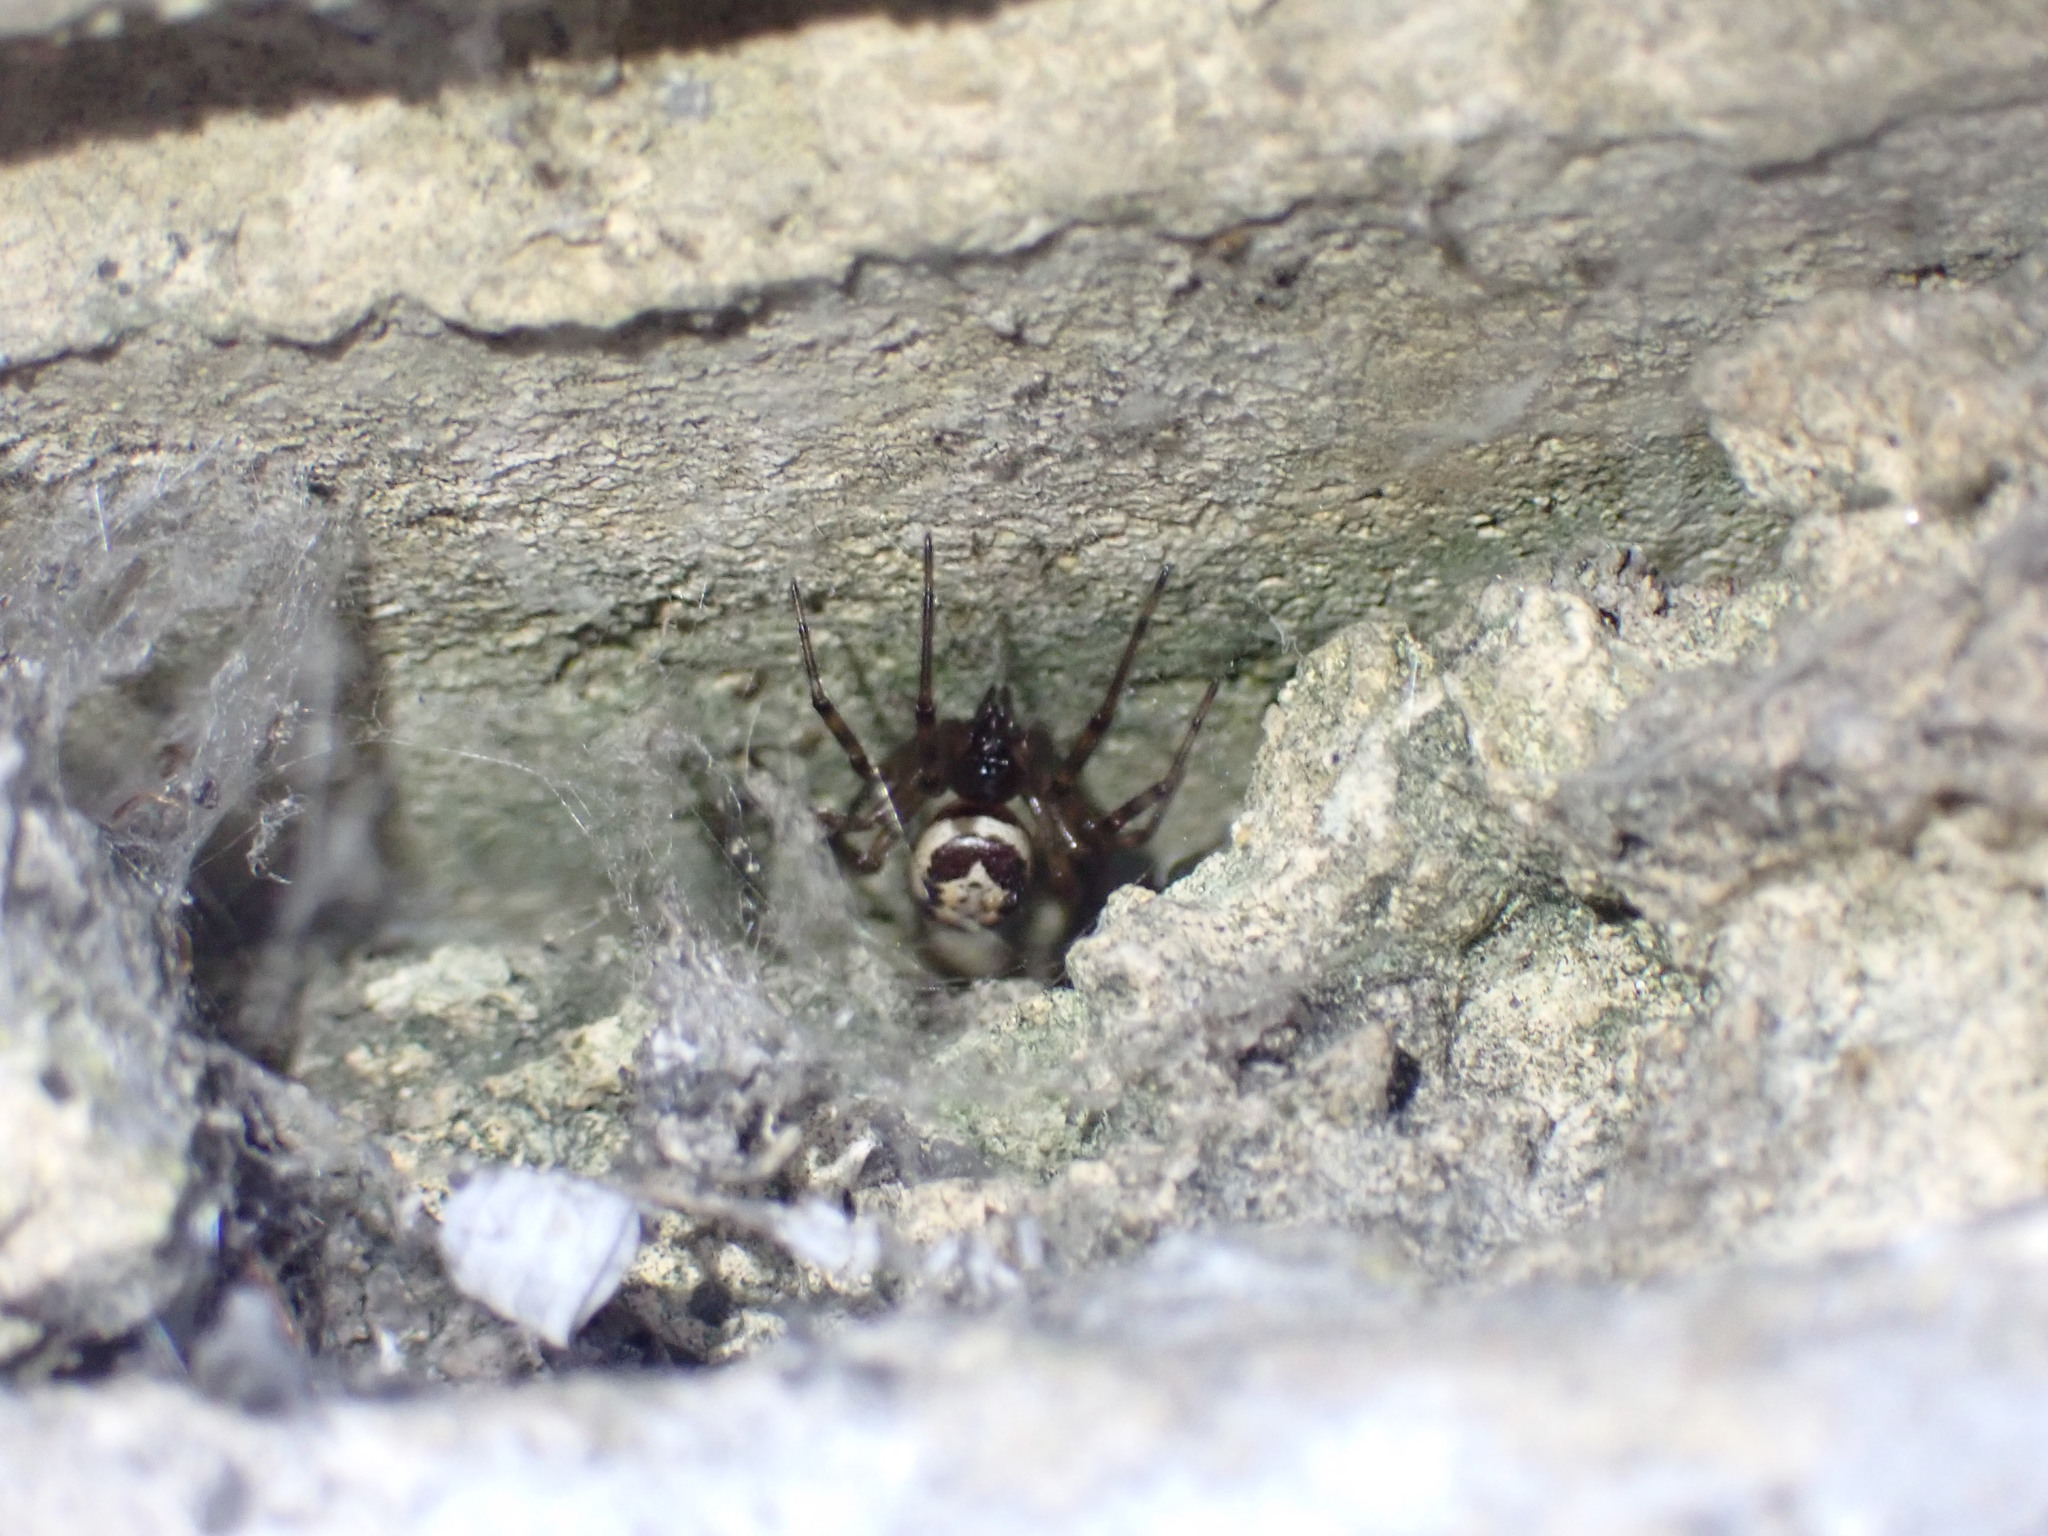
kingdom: Animalia
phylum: Arthropoda
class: Arachnida
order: Araneae
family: Theridiidae
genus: Steatoda
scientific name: Steatoda nobilis
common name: Cobweb weaver
